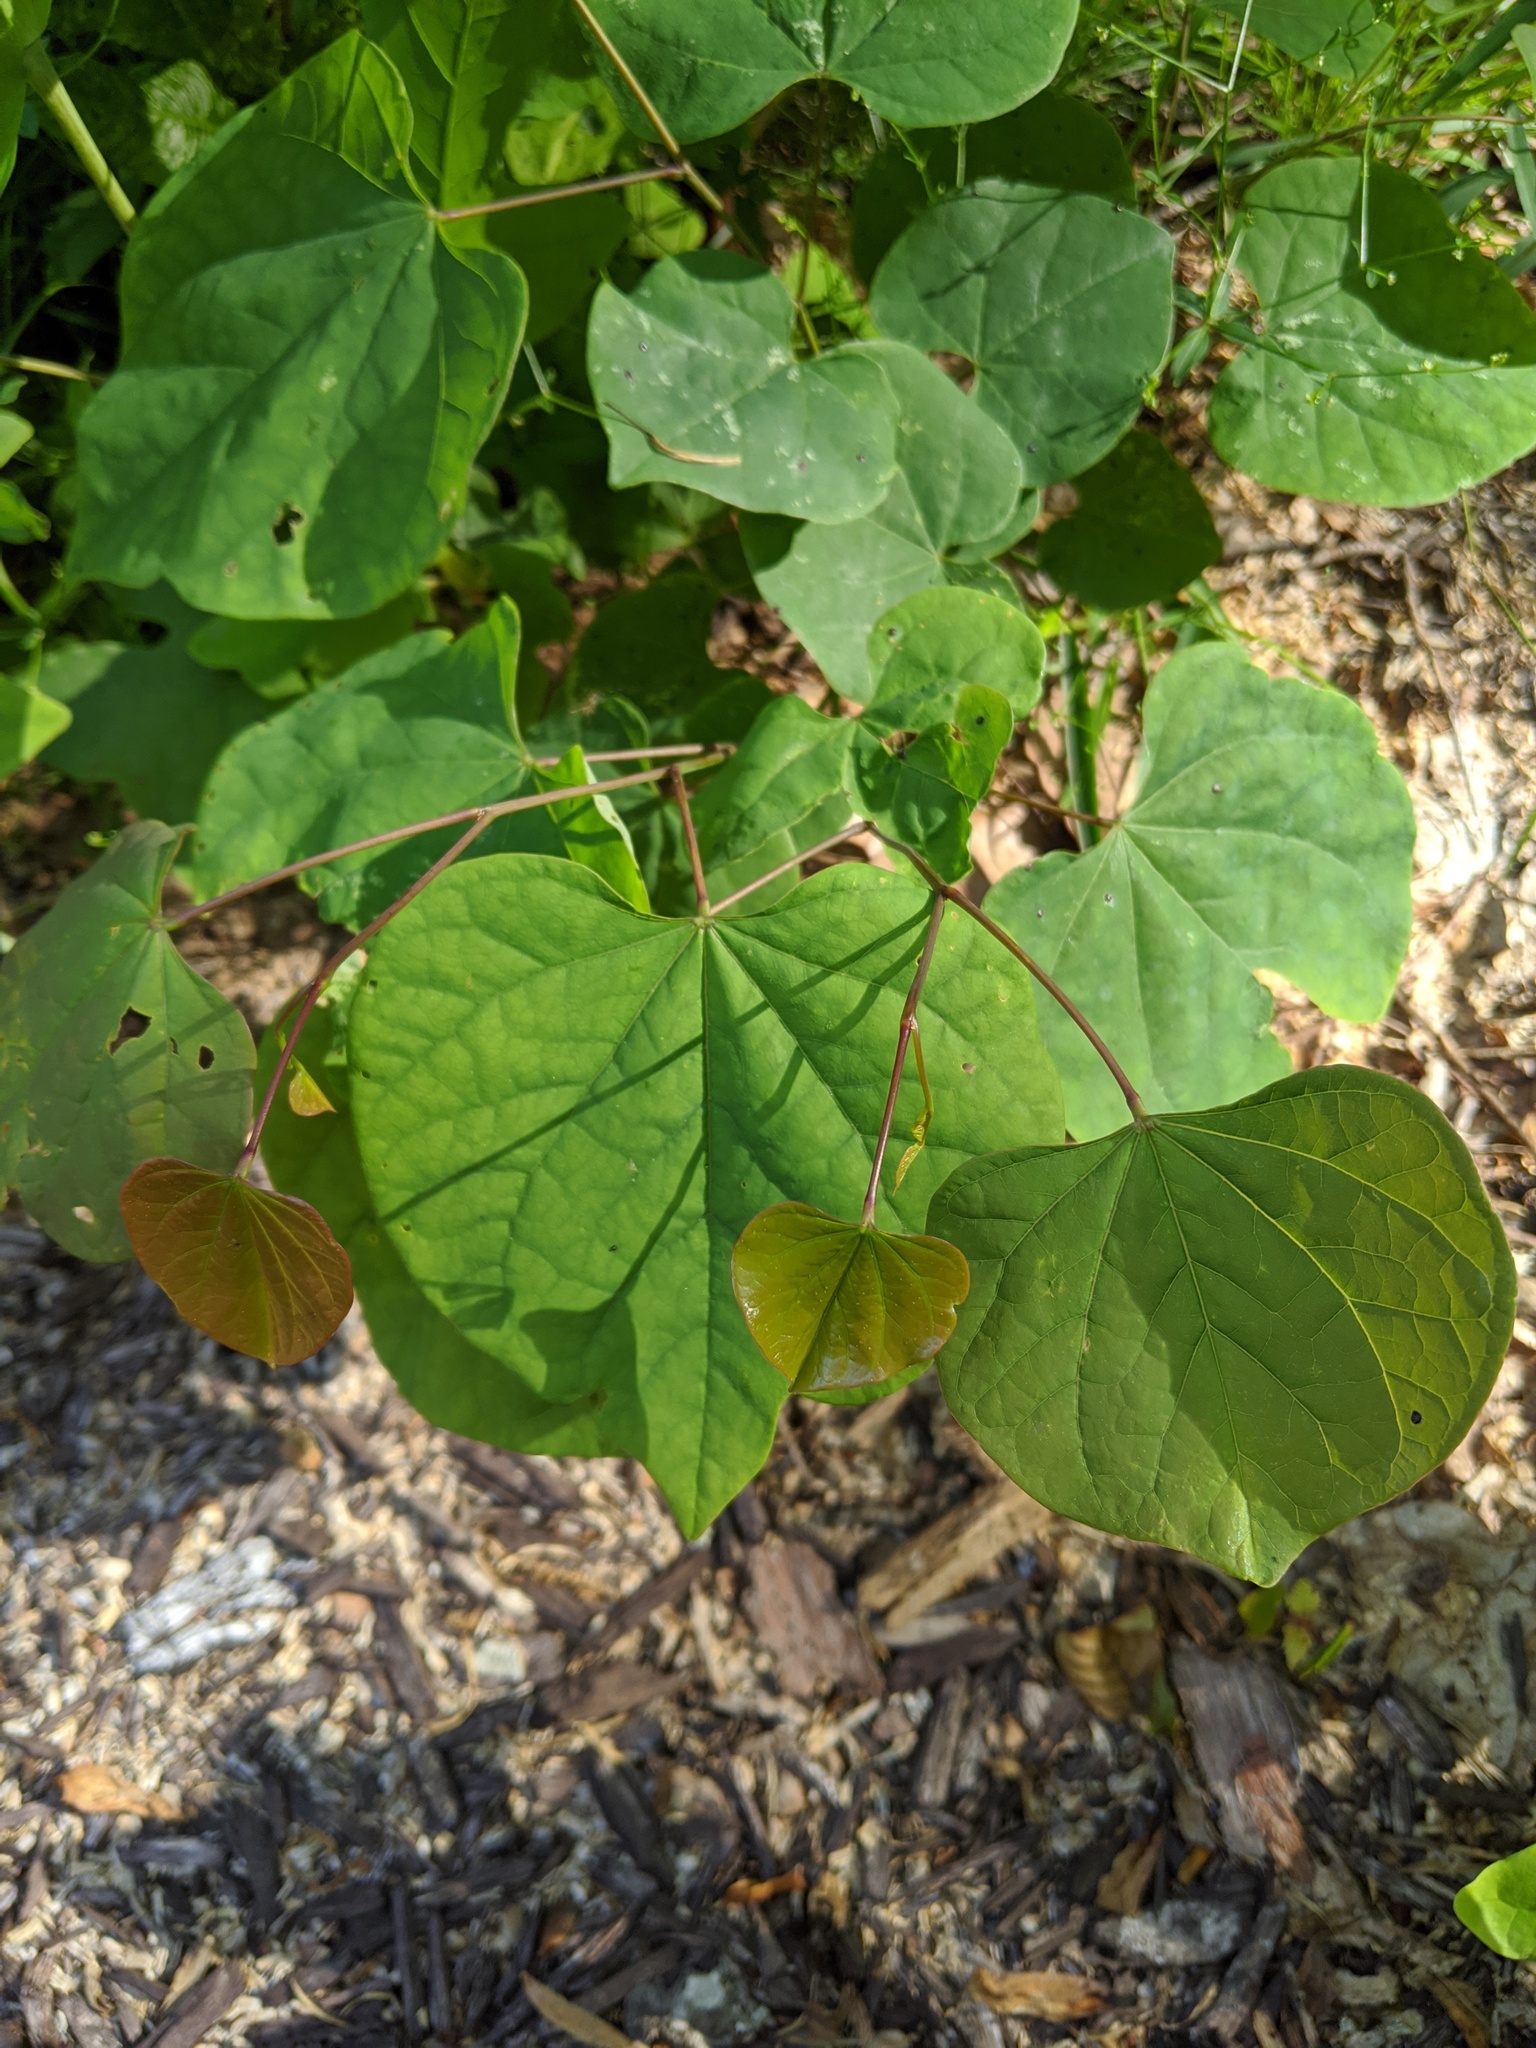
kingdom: Plantae
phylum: Tracheophyta
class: Magnoliopsida
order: Fabales
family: Fabaceae
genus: Cercis
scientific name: Cercis canadensis
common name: Eastern redbud
